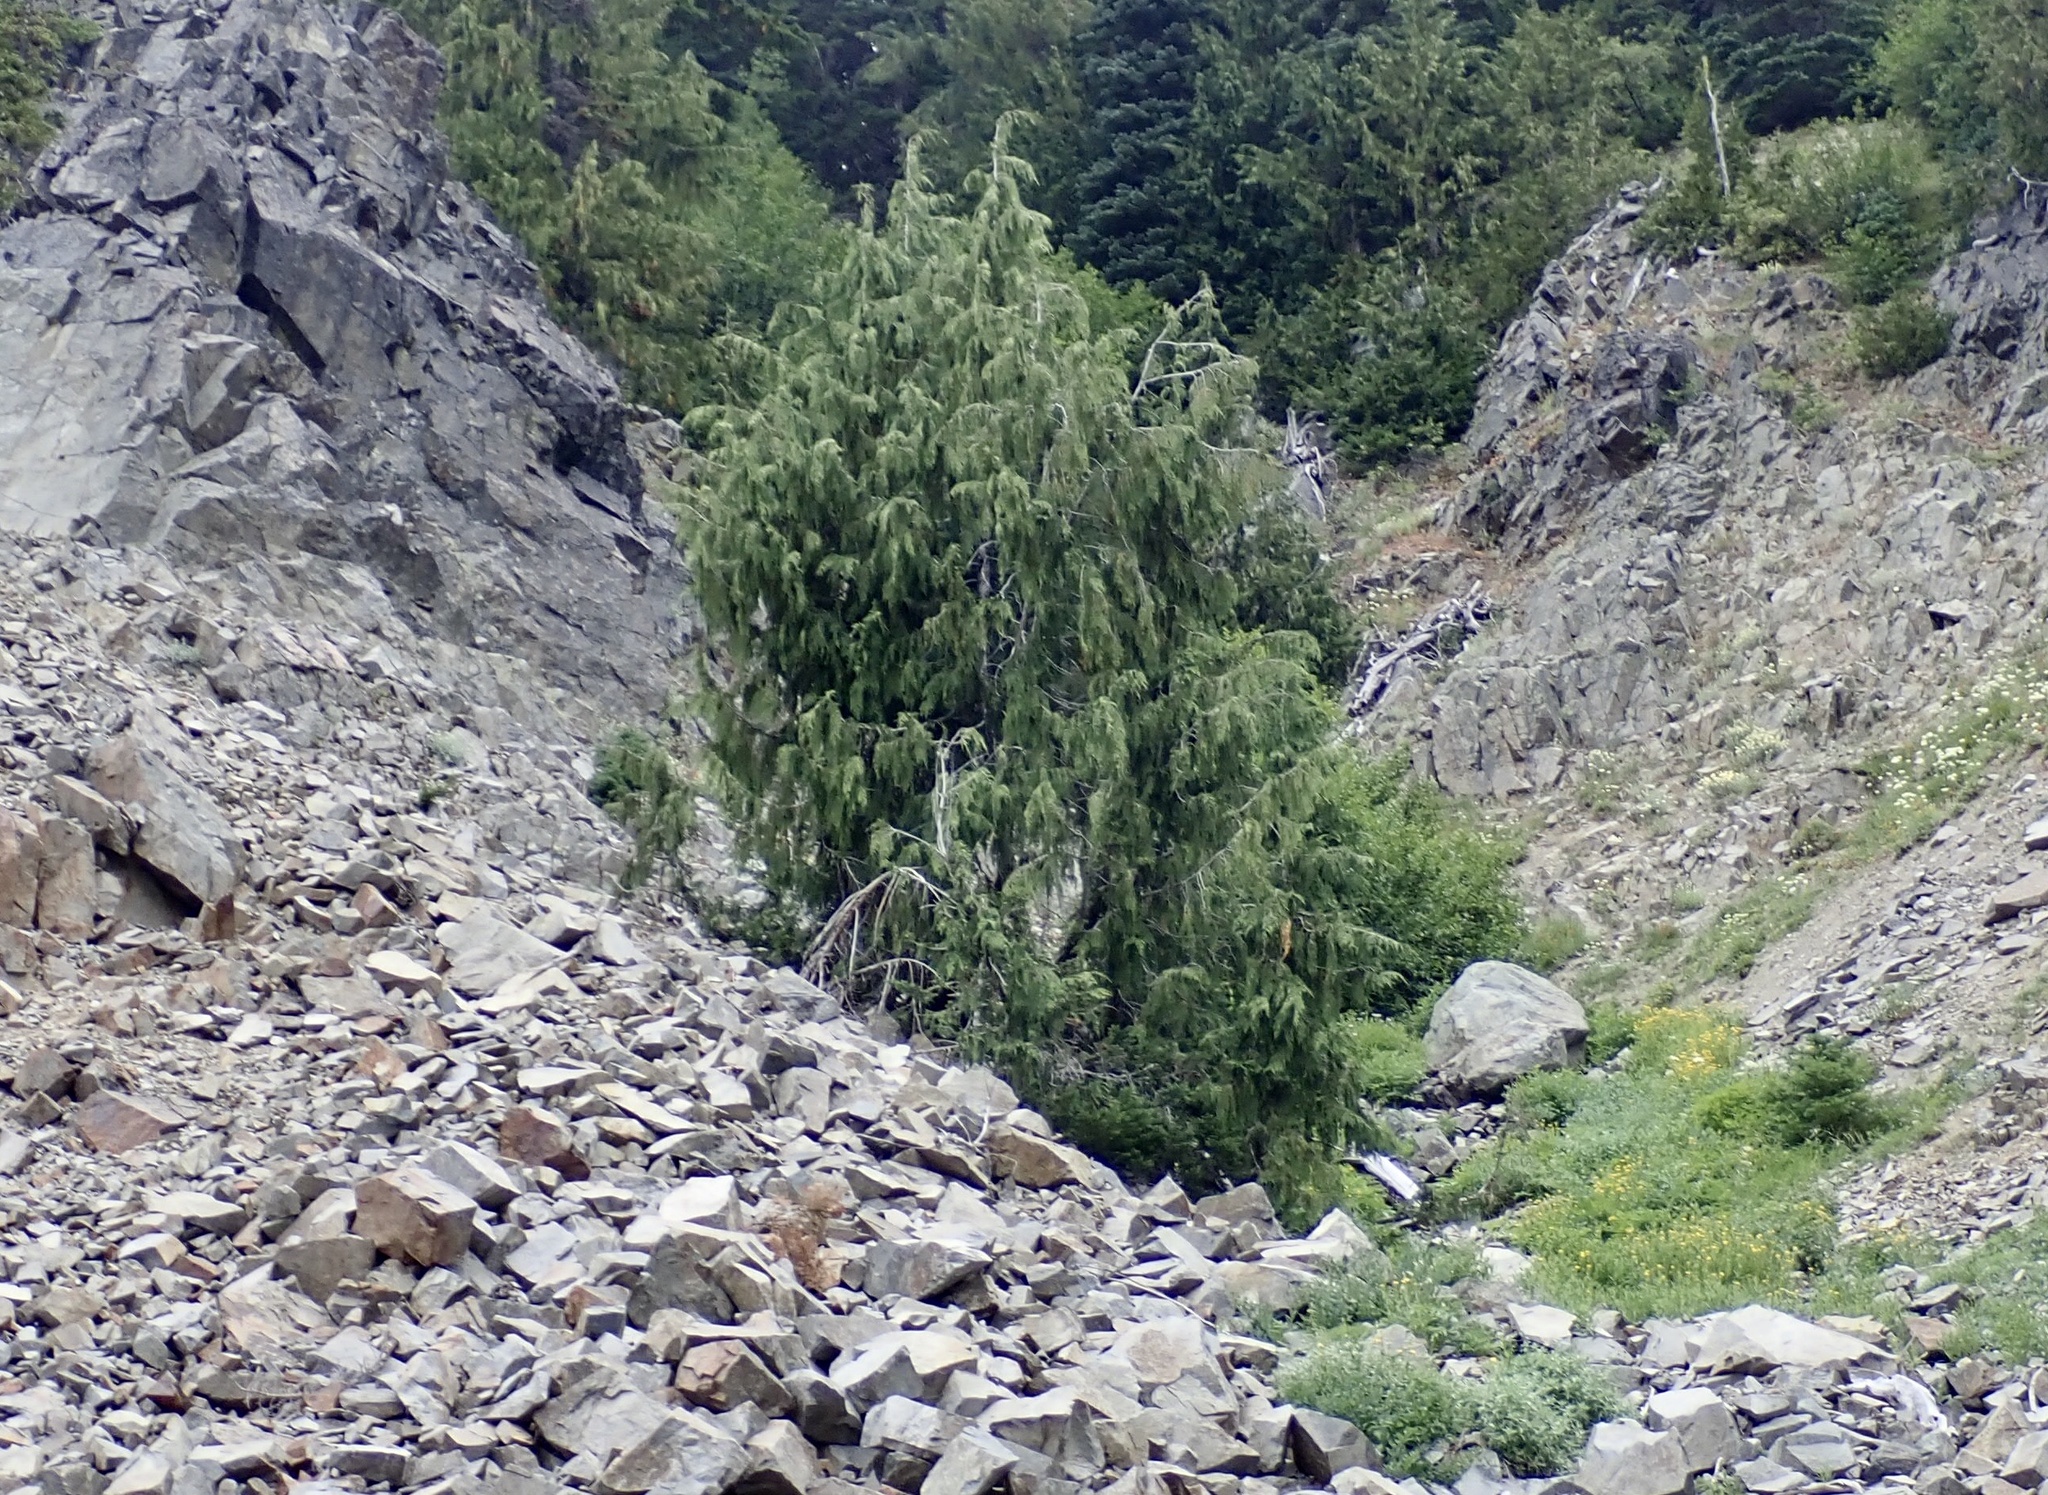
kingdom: Plantae
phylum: Tracheophyta
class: Pinopsida
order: Pinales
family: Cupressaceae
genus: Xanthocyparis
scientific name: Xanthocyparis nootkatensis
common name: Nootka cypress
